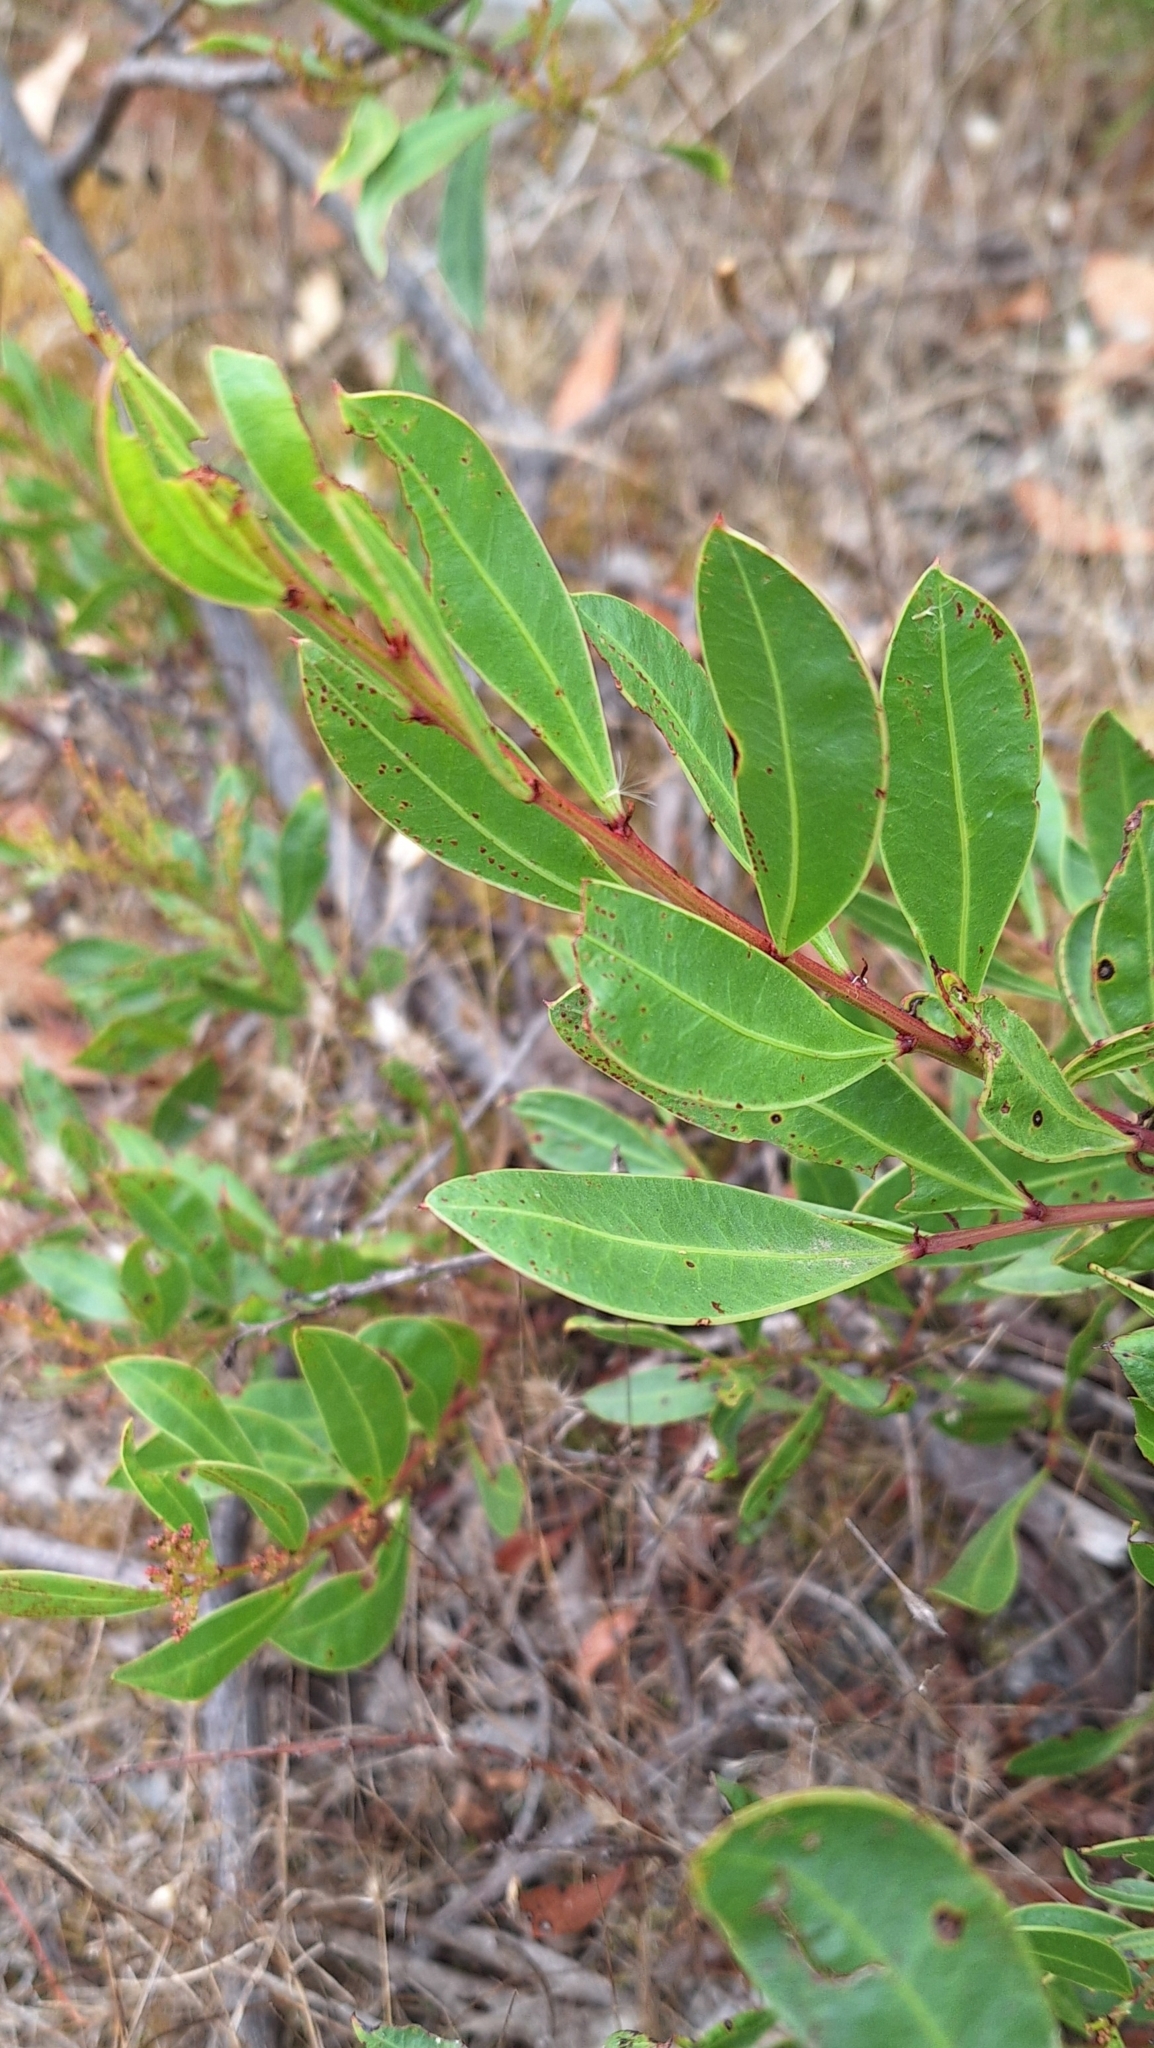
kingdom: Plantae
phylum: Tracheophyta
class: Magnoliopsida
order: Fabales
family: Fabaceae
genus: Acacia
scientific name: Acacia myrtifolia
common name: Myrtle wattle
